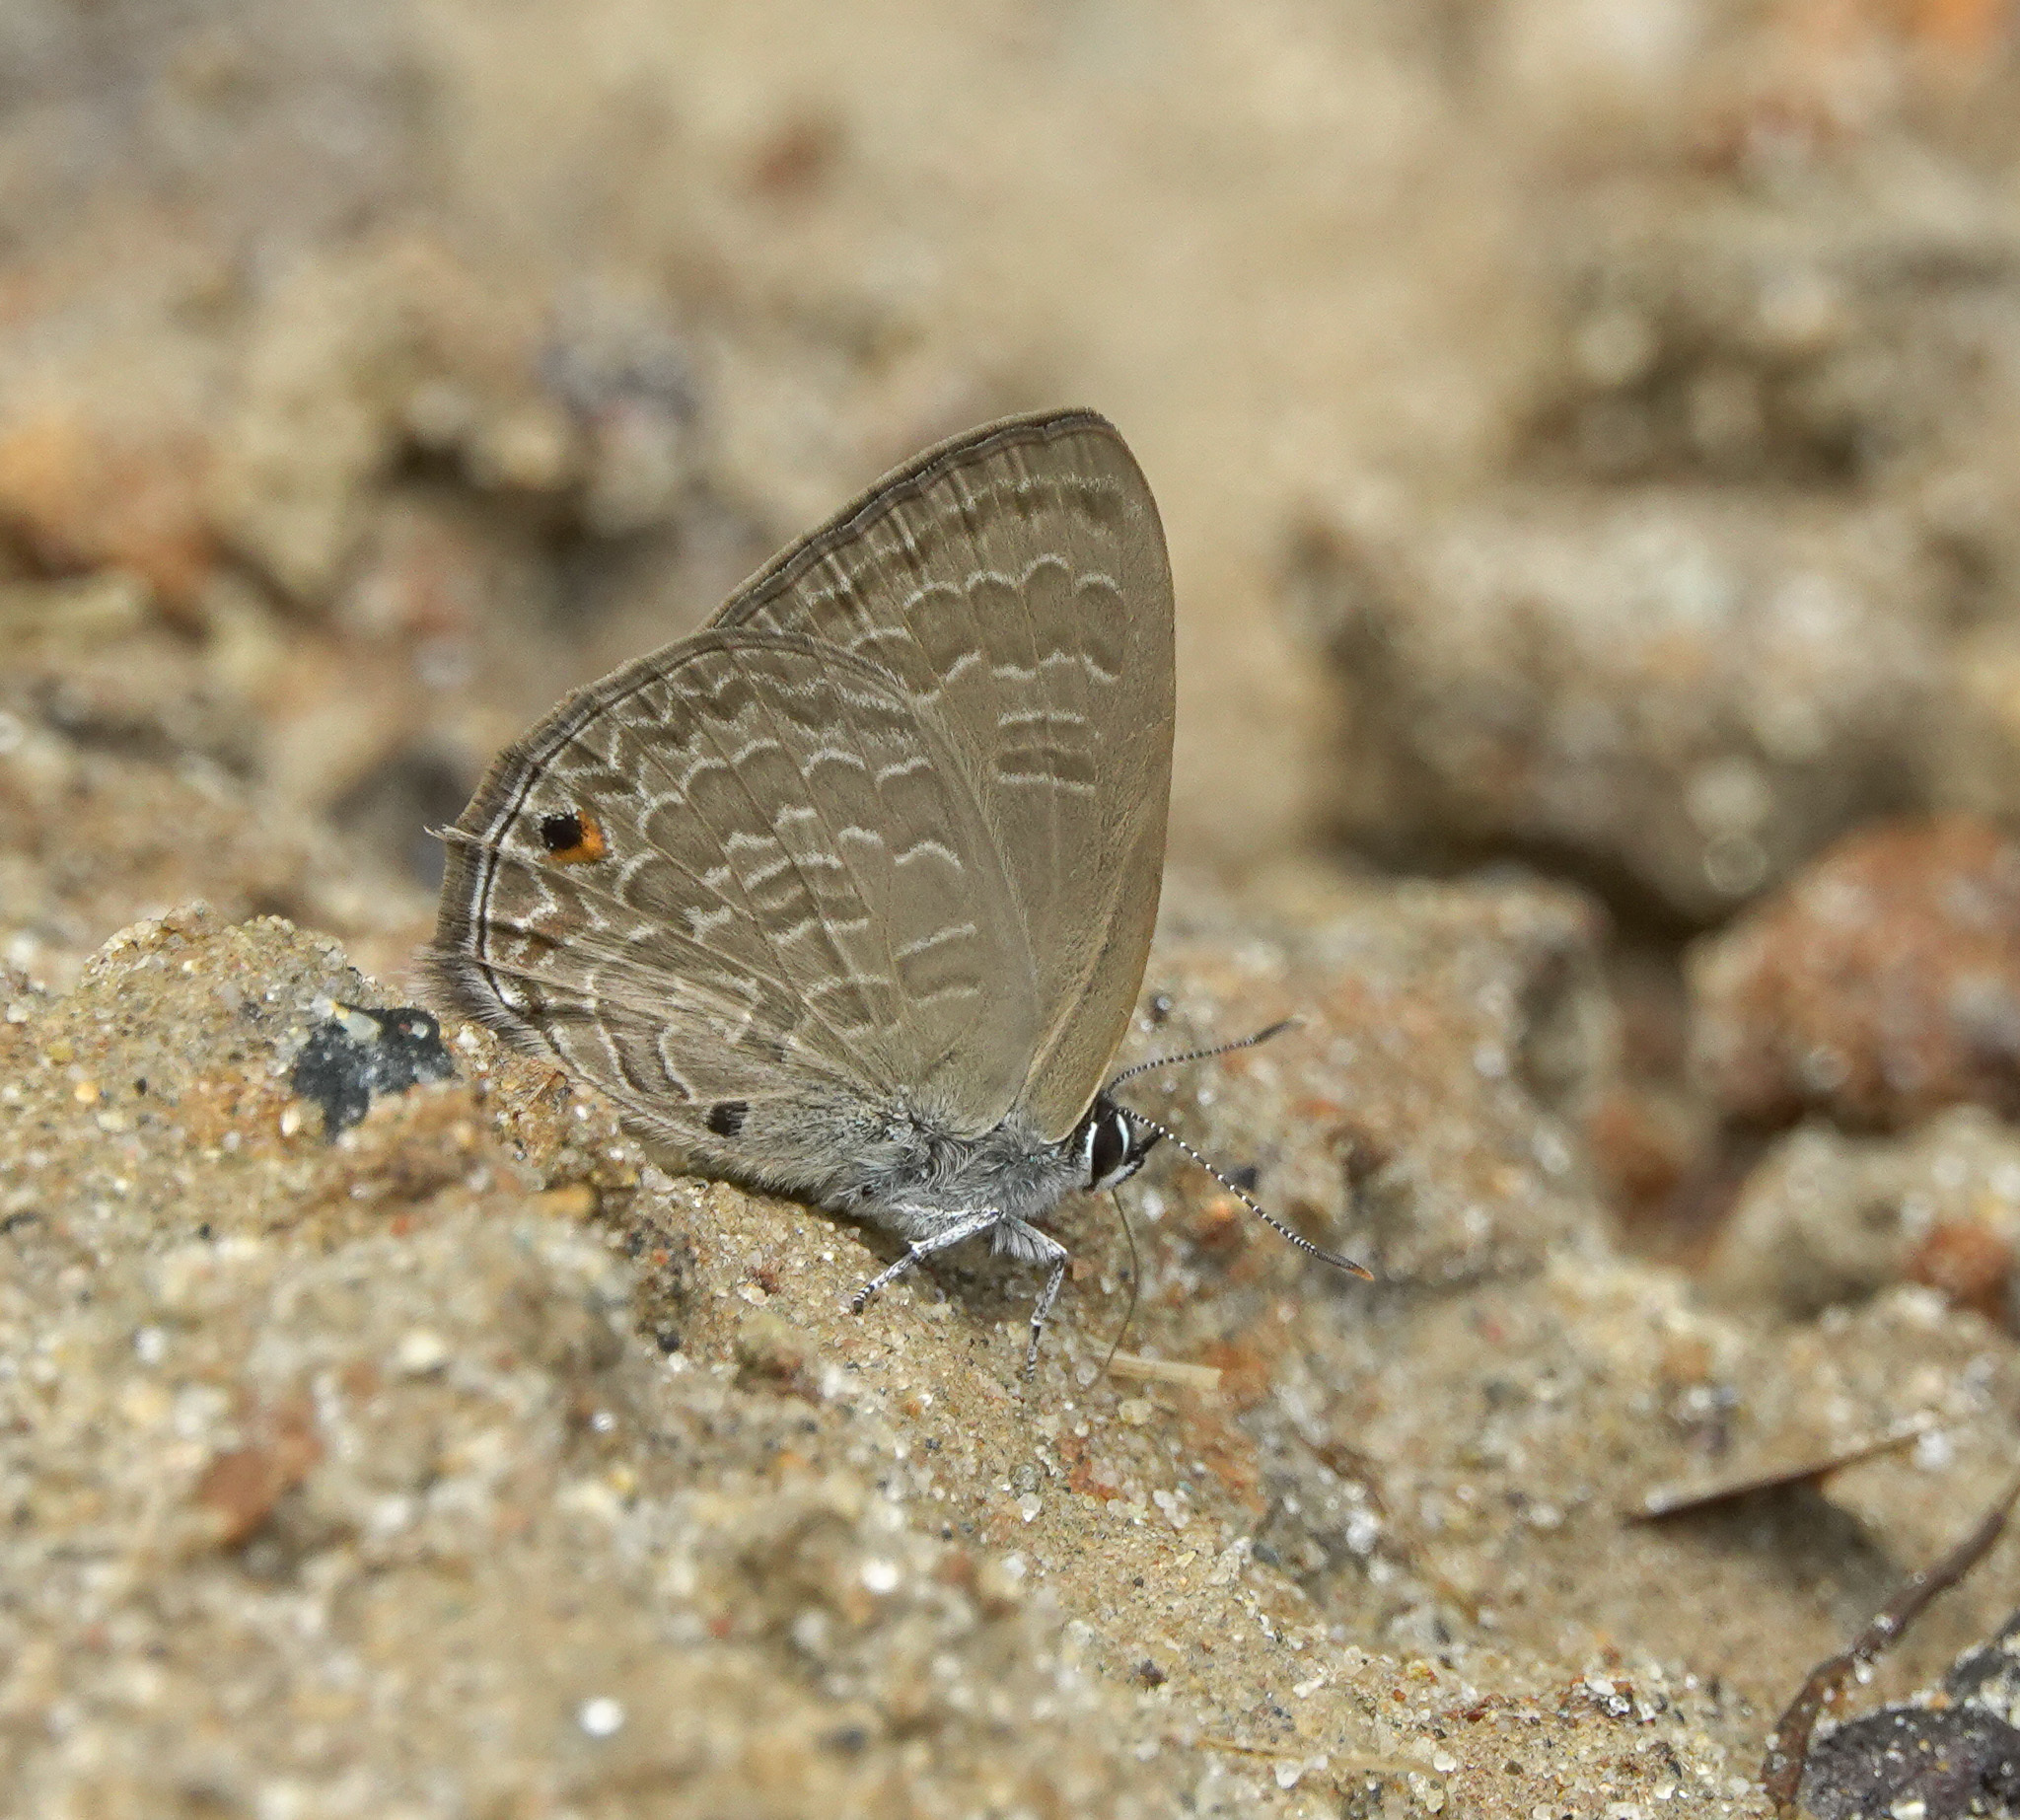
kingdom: Animalia
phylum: Arthropoda
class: Insecta
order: Lepidoptera
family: Lycaenidae
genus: Anthene
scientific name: Anthene emolus
